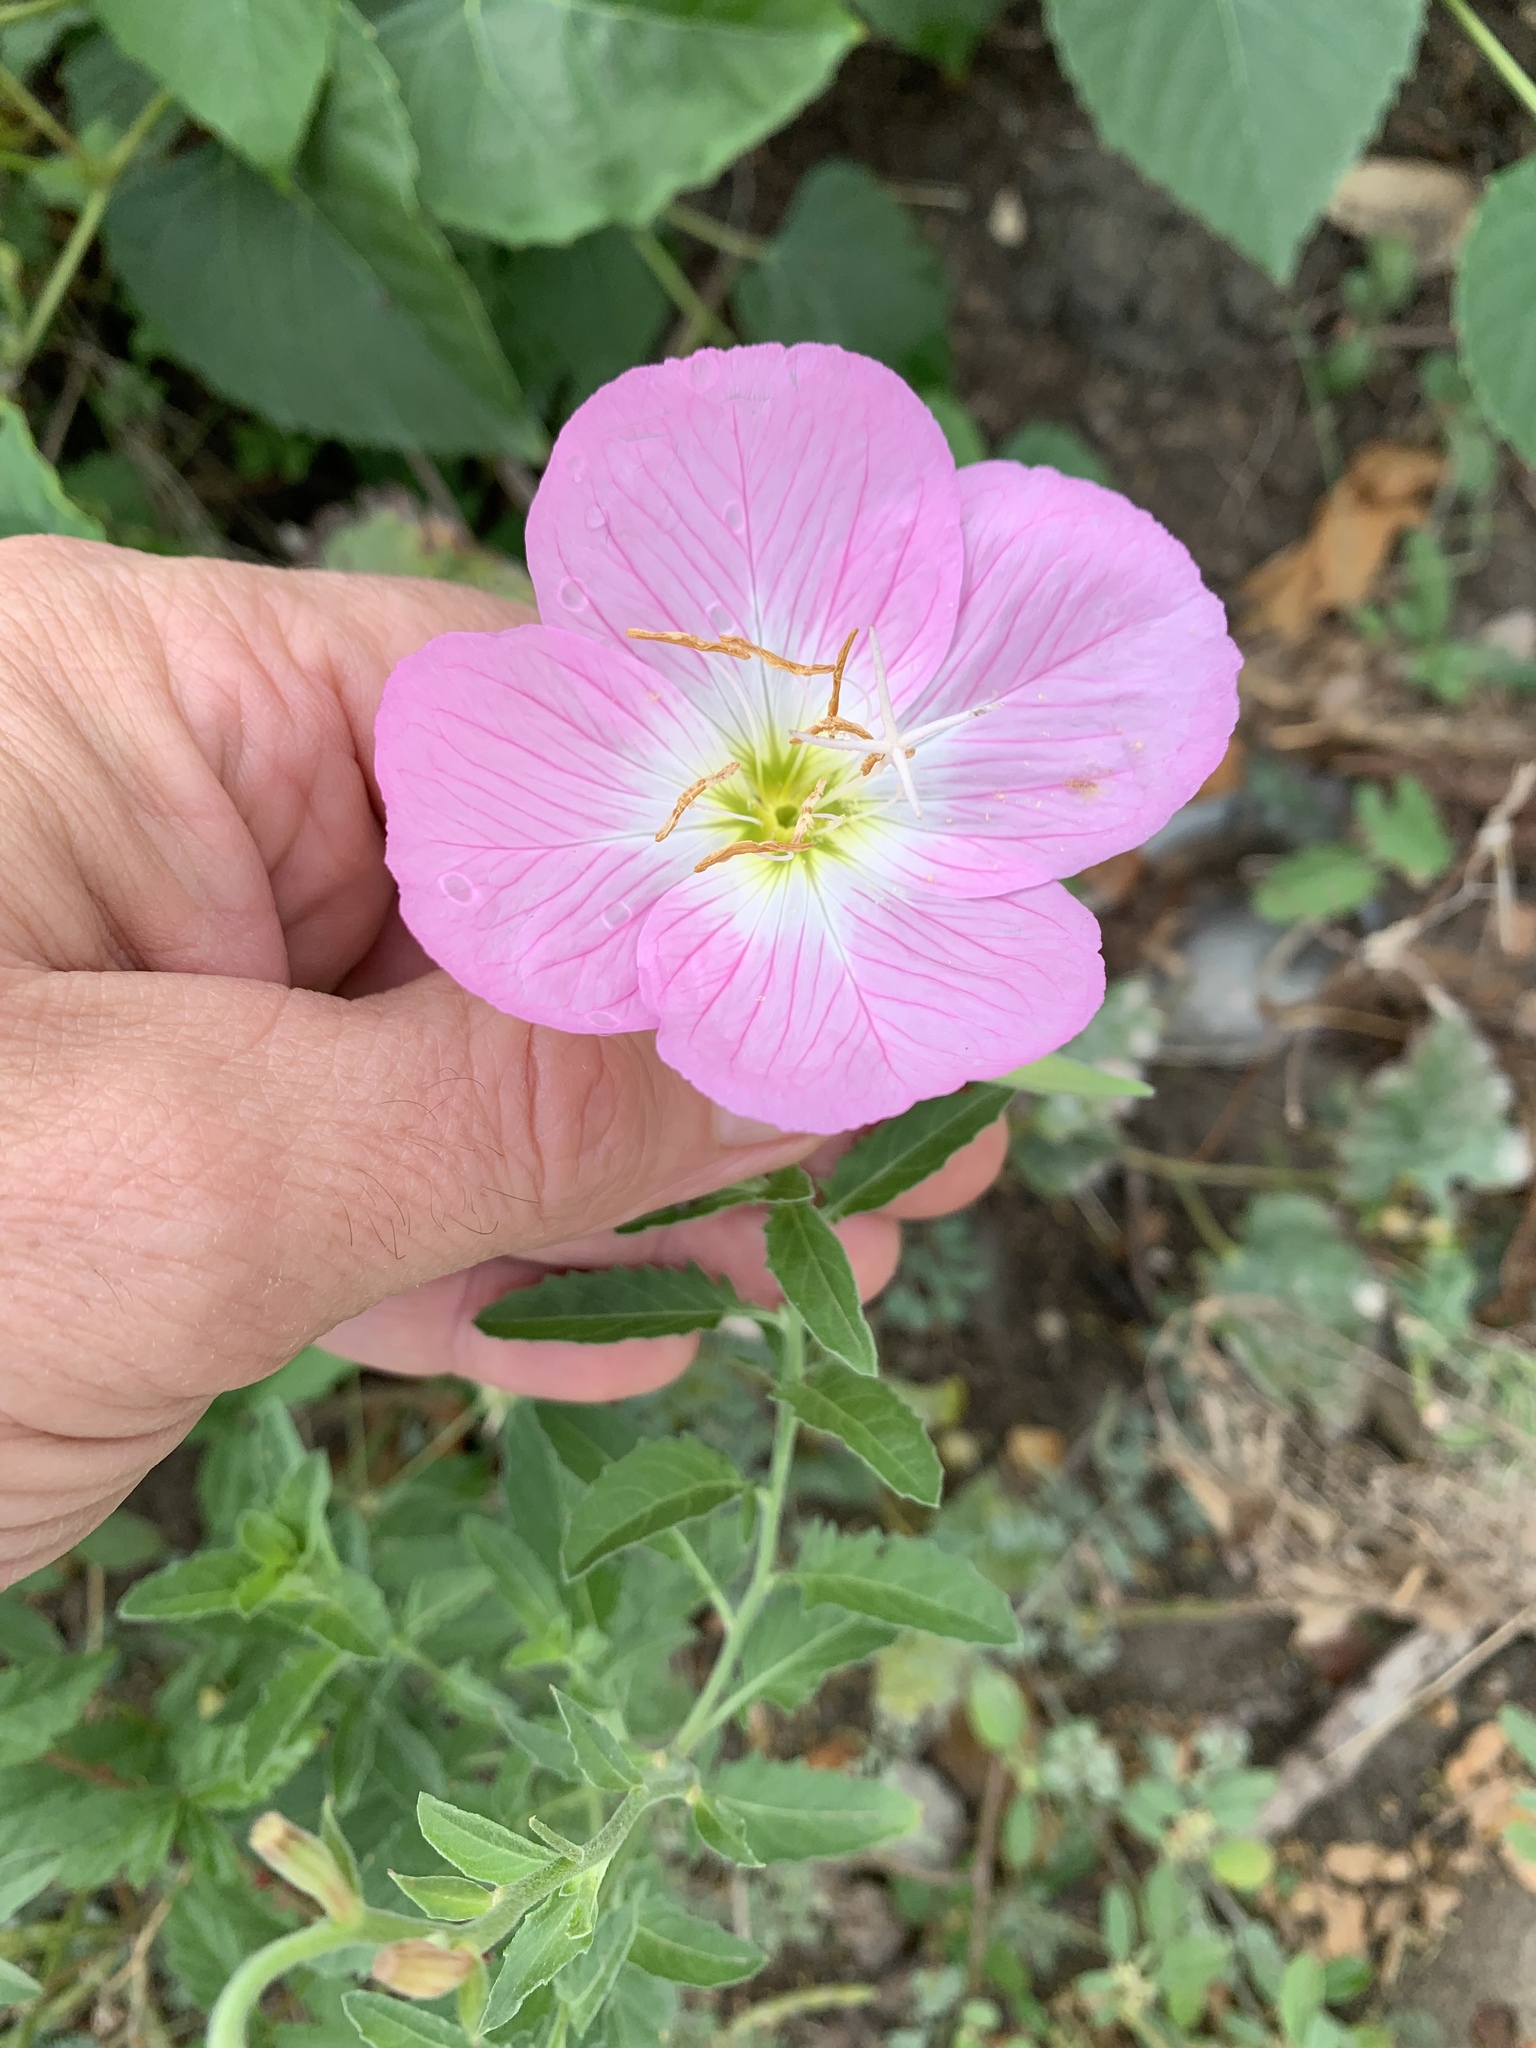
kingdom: Plantae
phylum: Tracheophyta
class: Magnoliopsida
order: Myrtales
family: Onagraceae
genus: Oenothera
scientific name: Oenothera speciosa
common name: White evening-primrose
